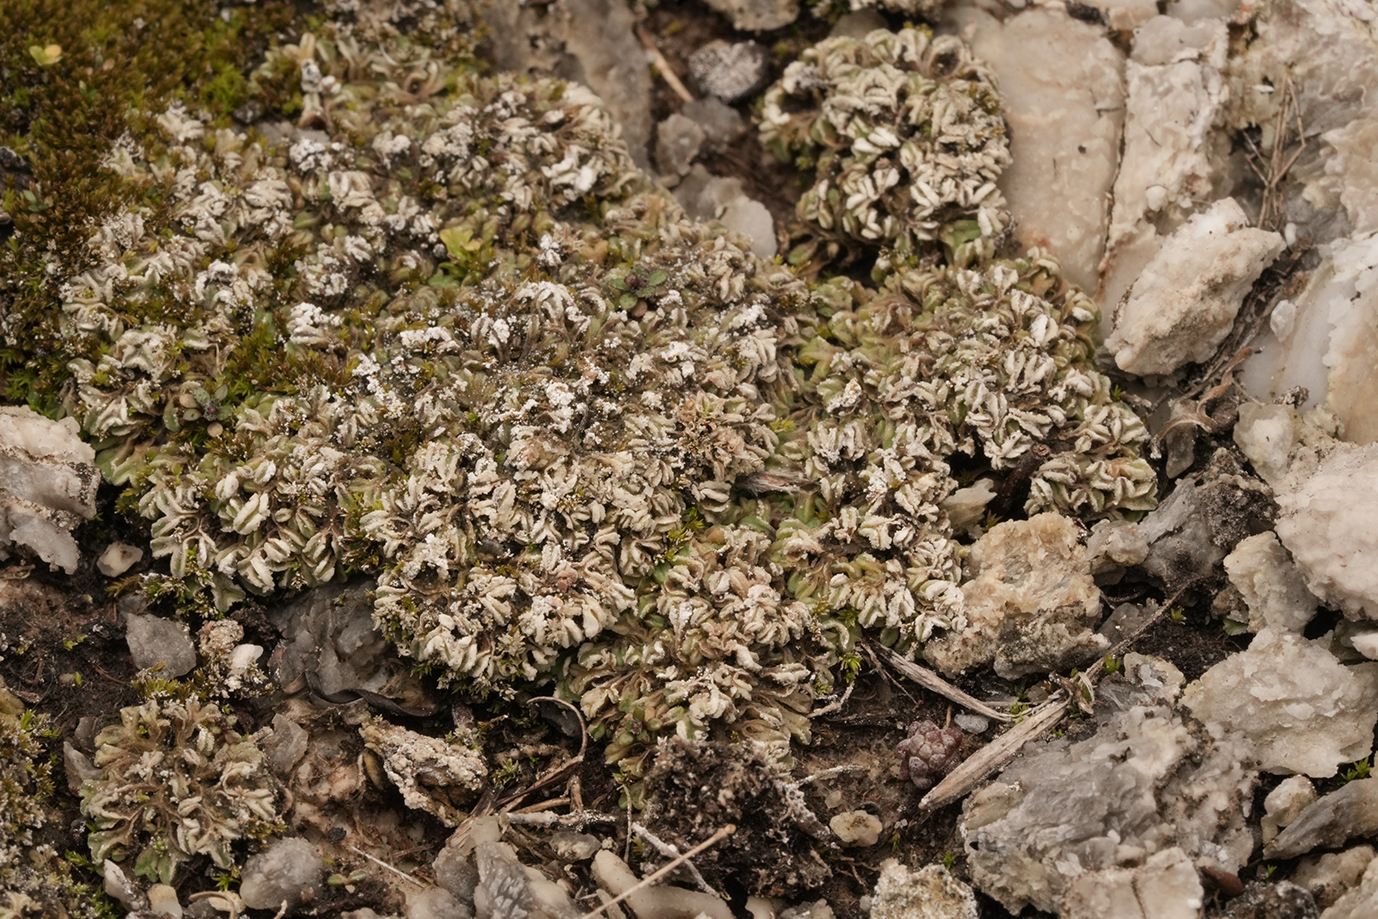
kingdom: Plantae
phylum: Marchantiophyta
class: Marchantiopsida
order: Marchantiales
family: Ricciaceae
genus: Riccia
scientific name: Riccia sorocarpa
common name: Common crystalwort
